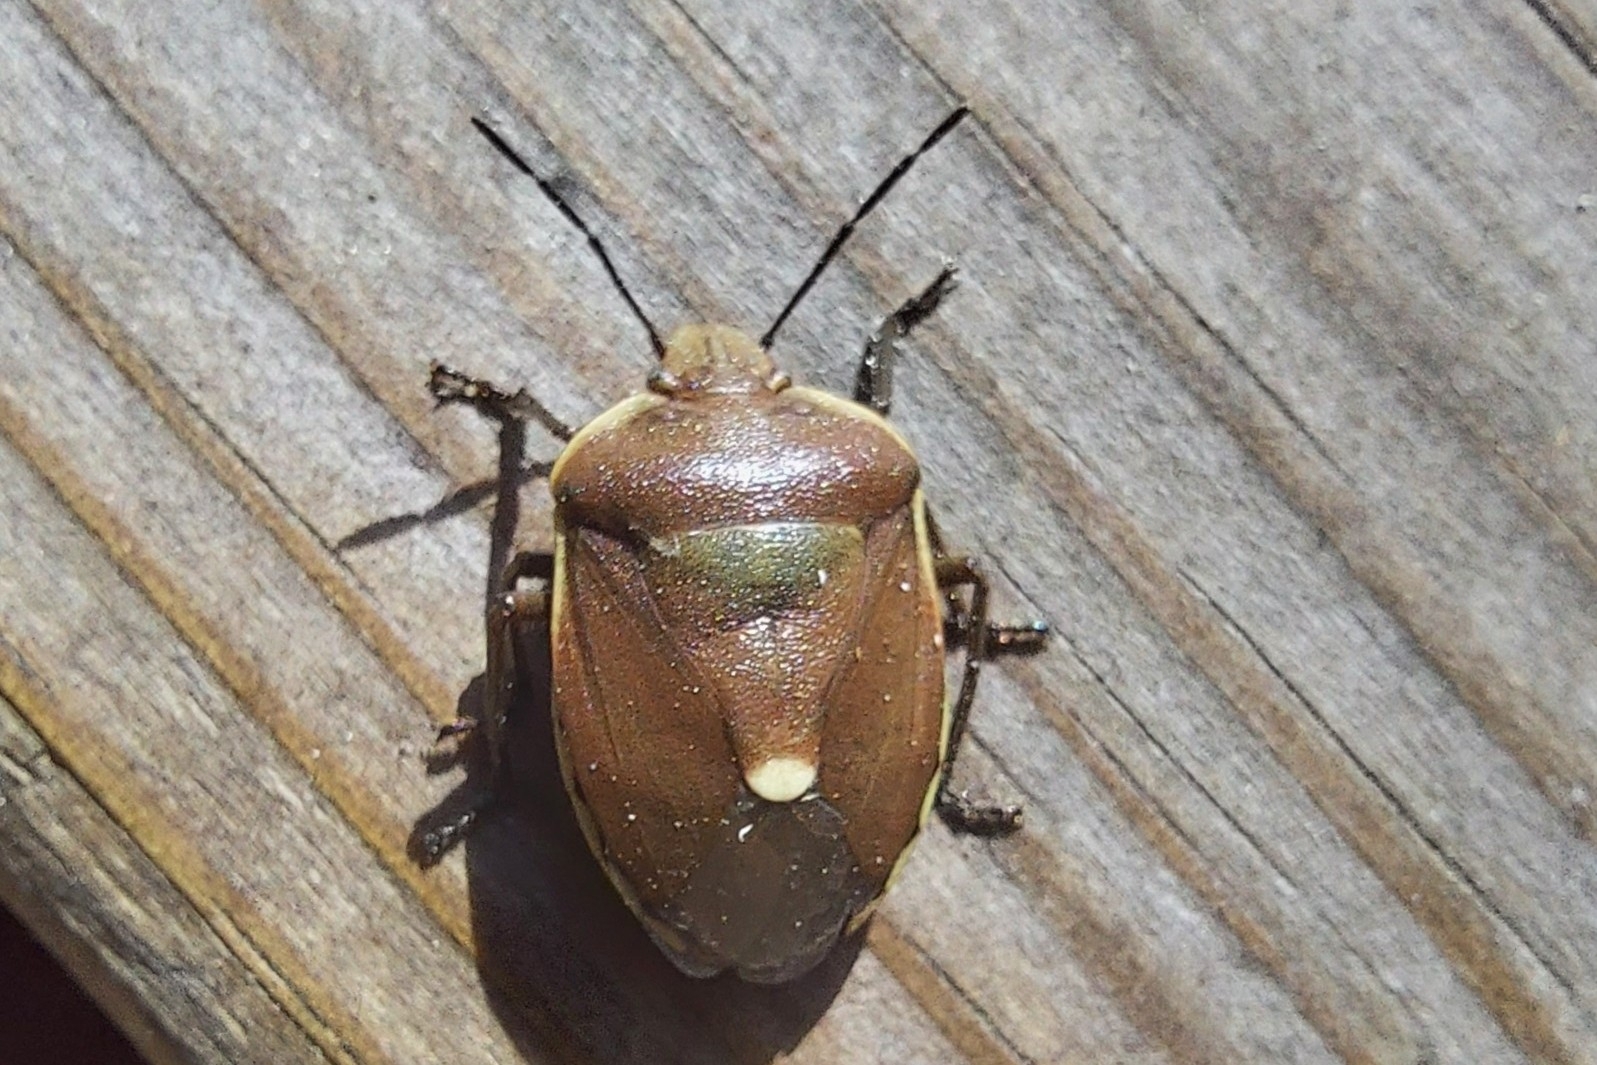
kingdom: Animalia
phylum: Arthropoda
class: Insecta
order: Hemiptera
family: Pentatomidae
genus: Chlorochroa
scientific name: Chlorochroa pinicola
